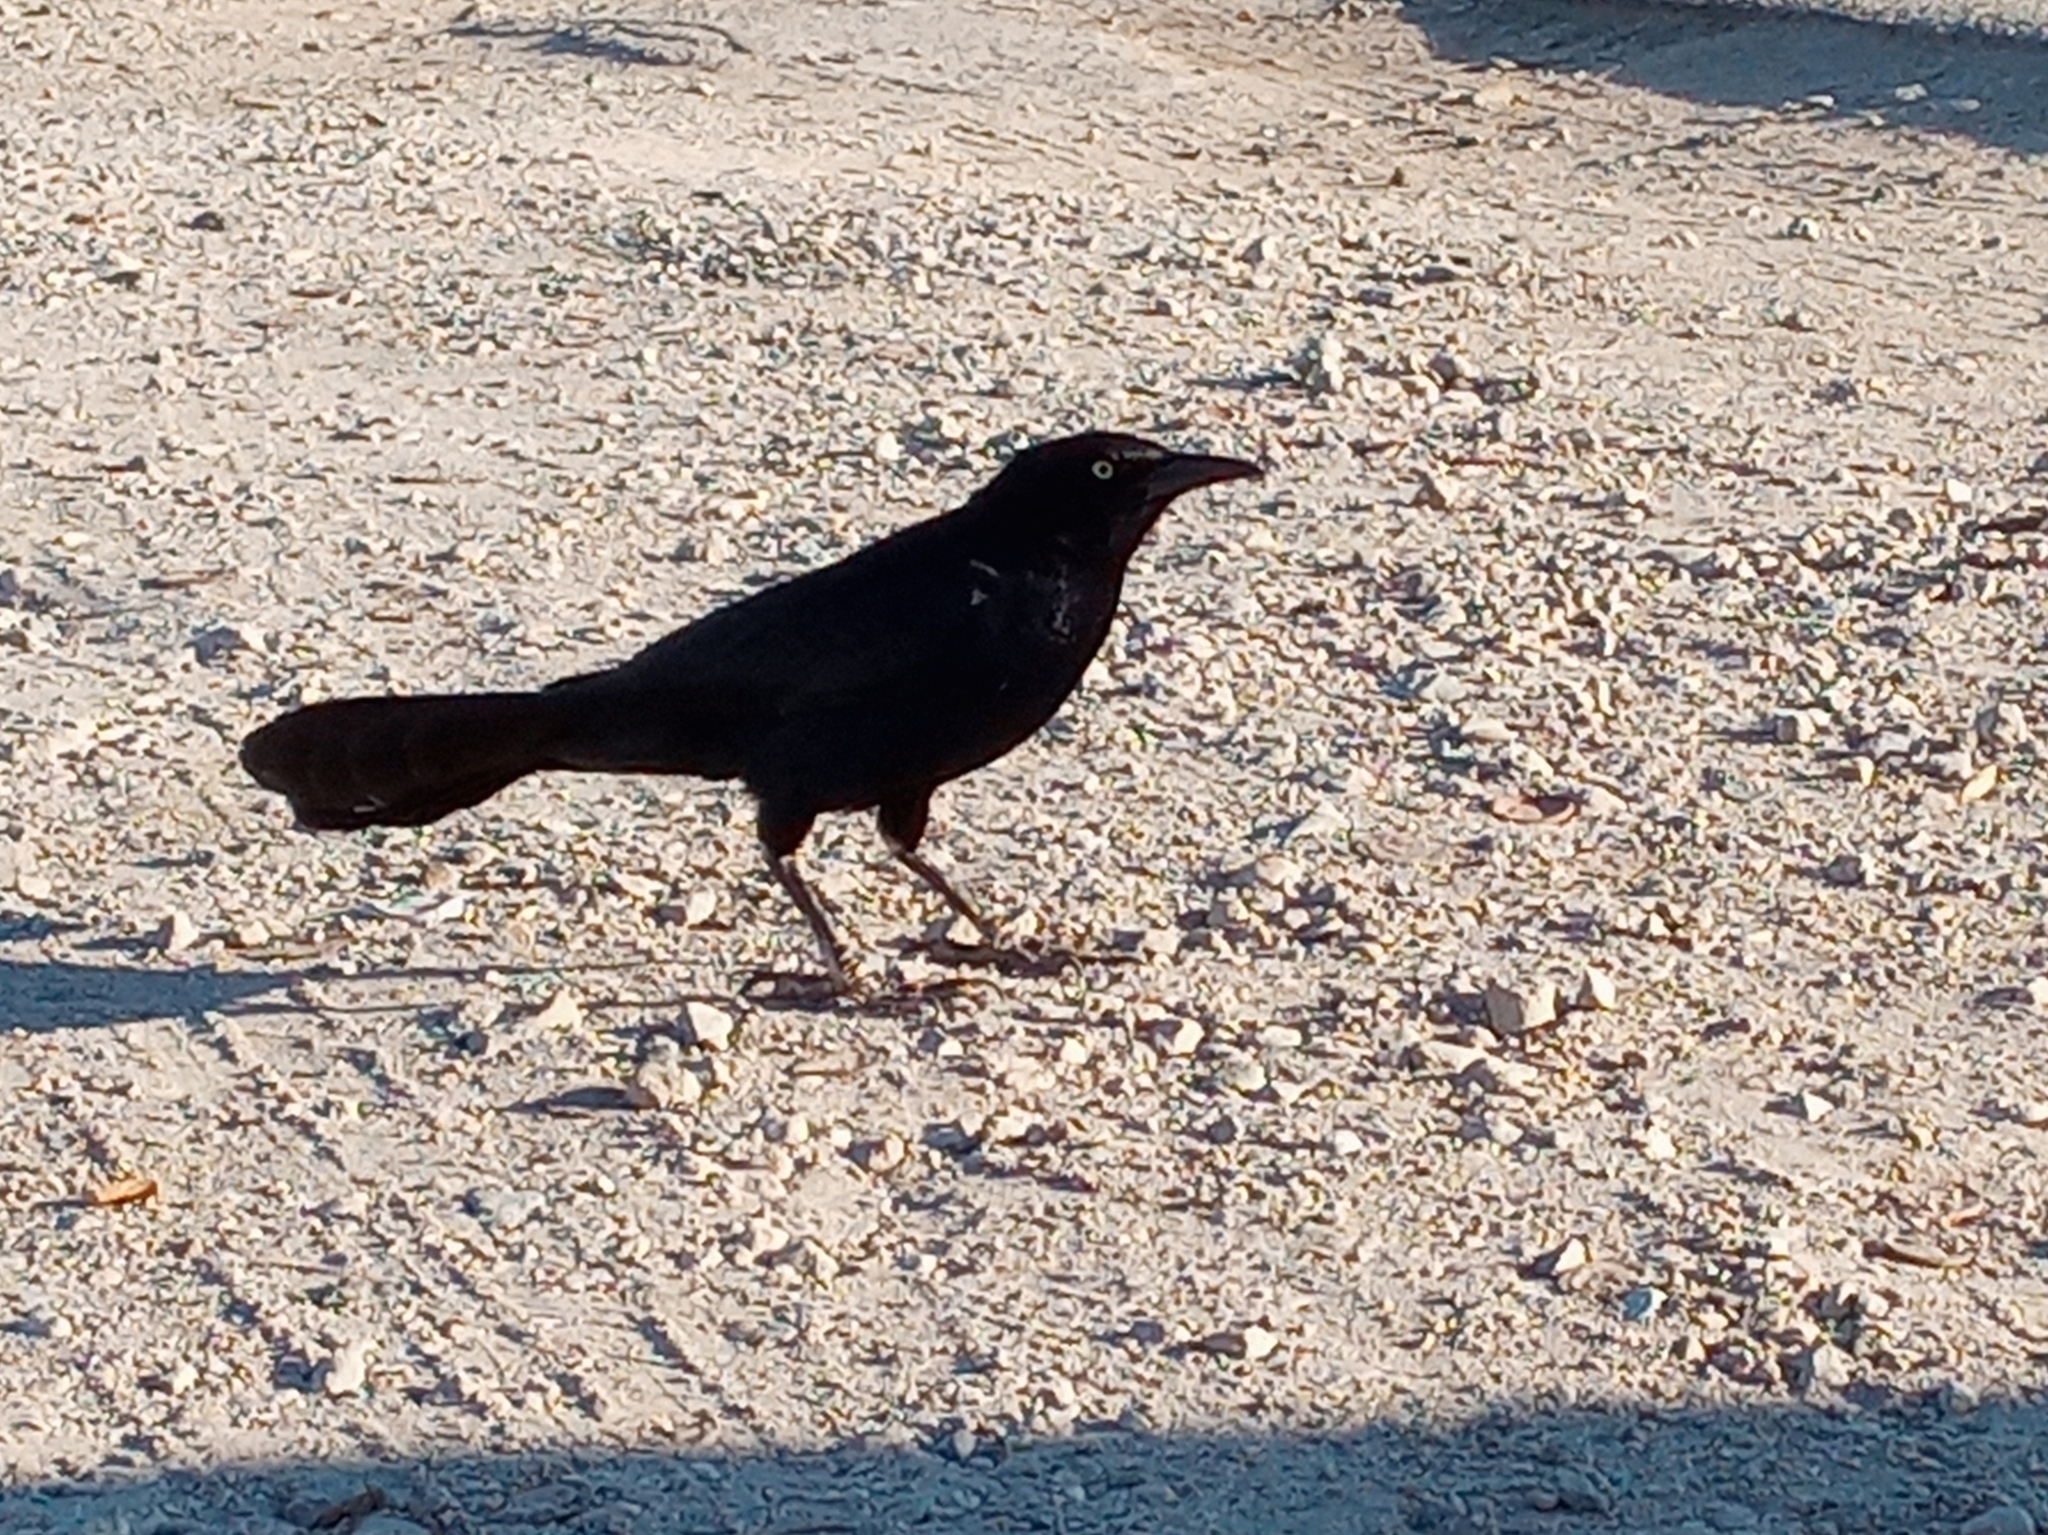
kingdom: Animalia
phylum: Chordata
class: Aves
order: Passeriformes
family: Icteridae
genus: Quiscalus
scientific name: Quiscalus mexicanus
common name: Great-tailed grackle
